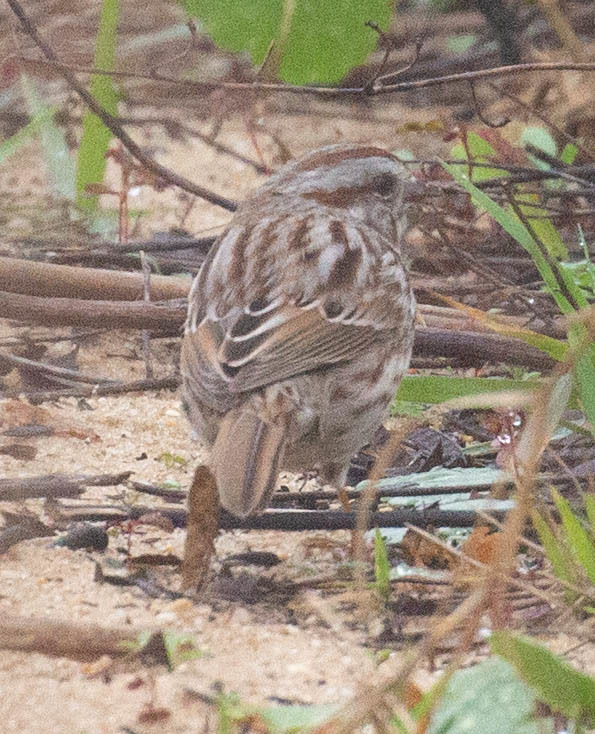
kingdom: Animalia
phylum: Chordata
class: Aves
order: Passeriformes
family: Passerellidae
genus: Melospiza
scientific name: Melospiza melodia
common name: Song sparrow
